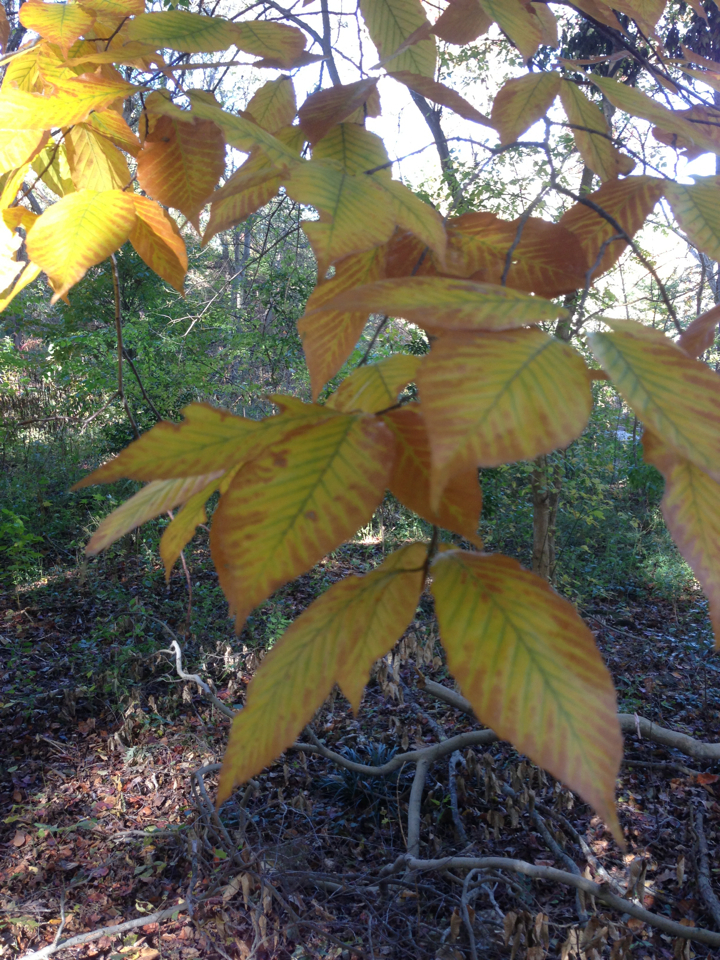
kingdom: Plantae
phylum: Tracheophyta
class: Magnoliopsida
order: Fagales
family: Fagaceae
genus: Fagus
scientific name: Fagus grandifolia
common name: American beech
